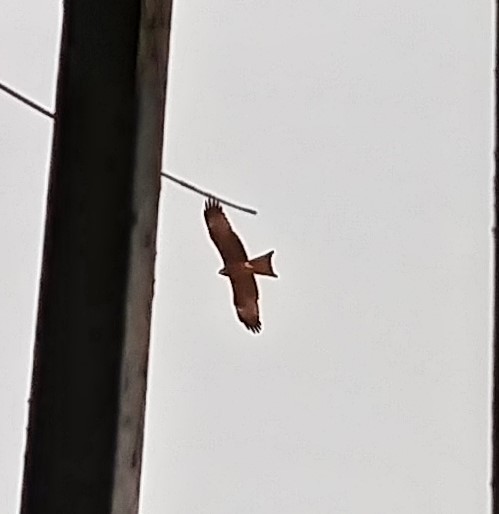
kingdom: Animalia
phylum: Chordata
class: Aves
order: Accipitriformes
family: Accipitridae
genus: Milvus
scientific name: Milvus migrans
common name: Black kite
